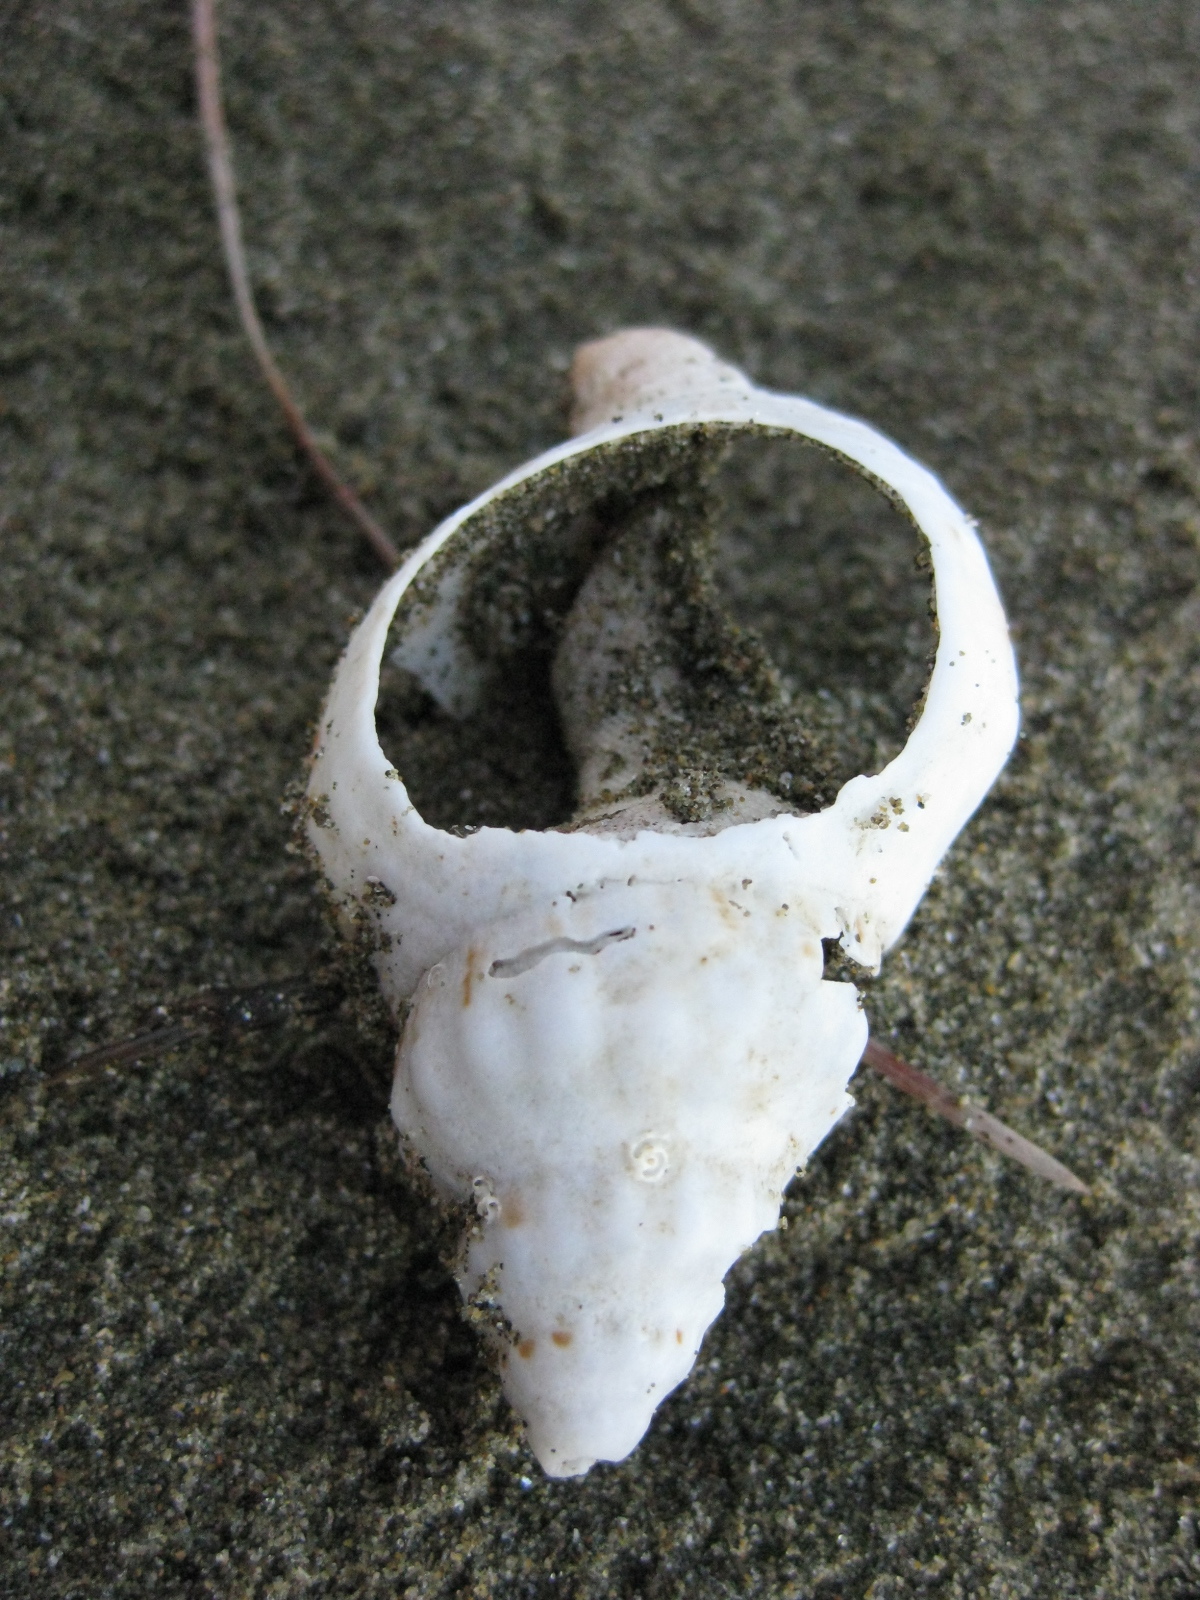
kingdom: Animalia
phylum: Mollusca
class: Gastropoda
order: Neogastropoda
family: Prosiphonidae
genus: Austrofusus
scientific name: Austrofusus glans
